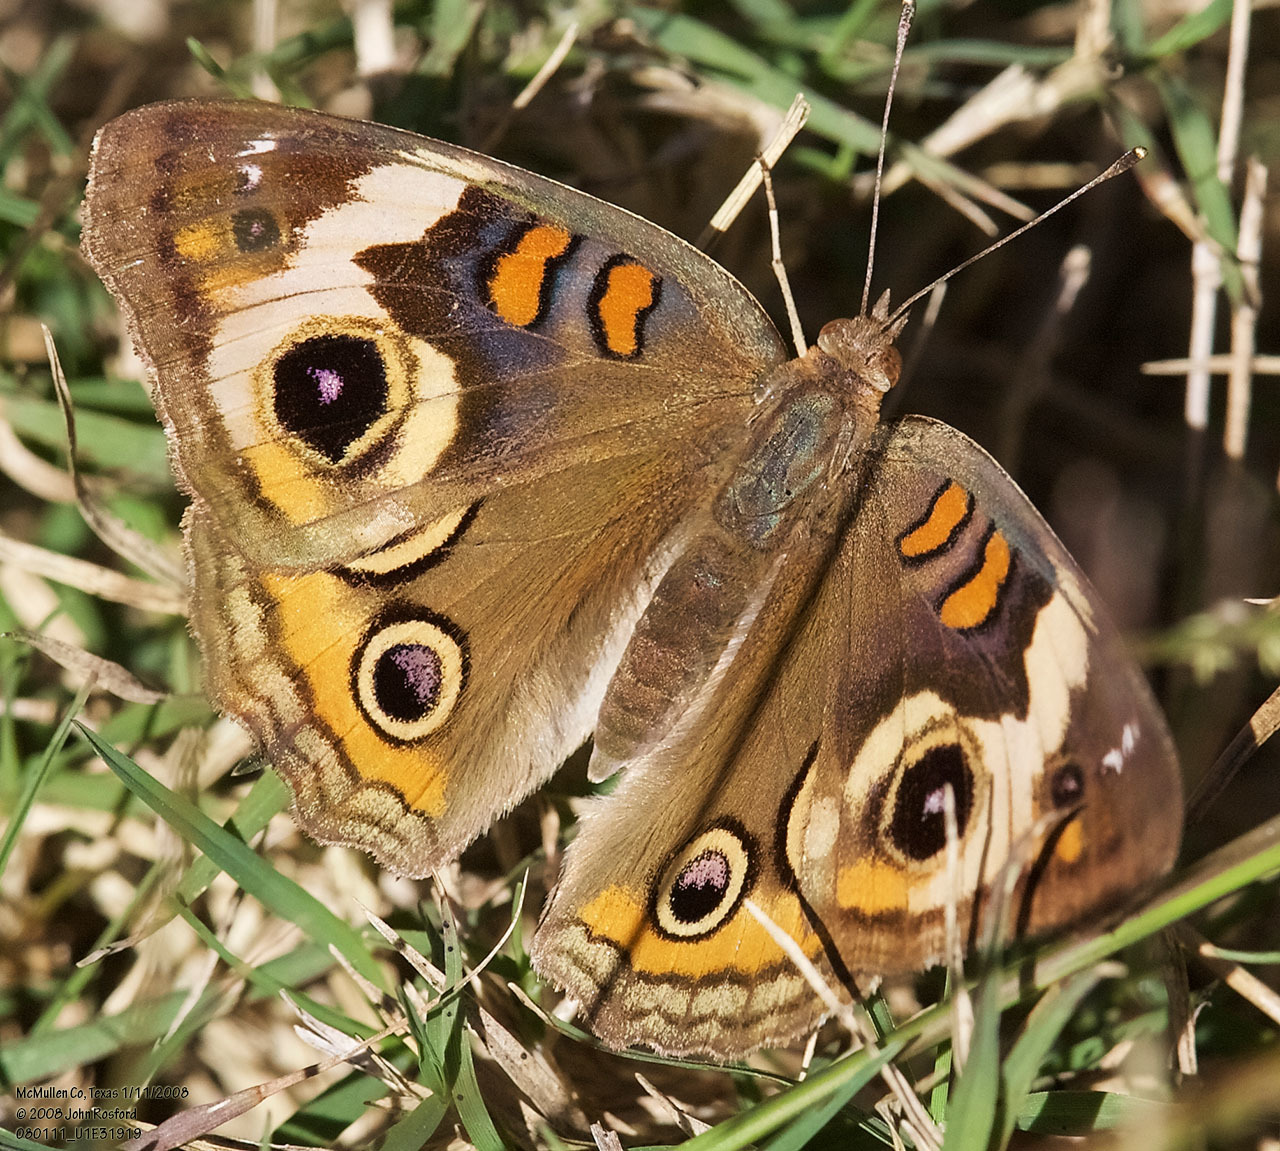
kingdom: Animalia
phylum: Arthropoda
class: Insecta
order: Lepidoptera
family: Nymphalidae
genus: Junonia
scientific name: Junonia coenia
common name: Common buckeye
